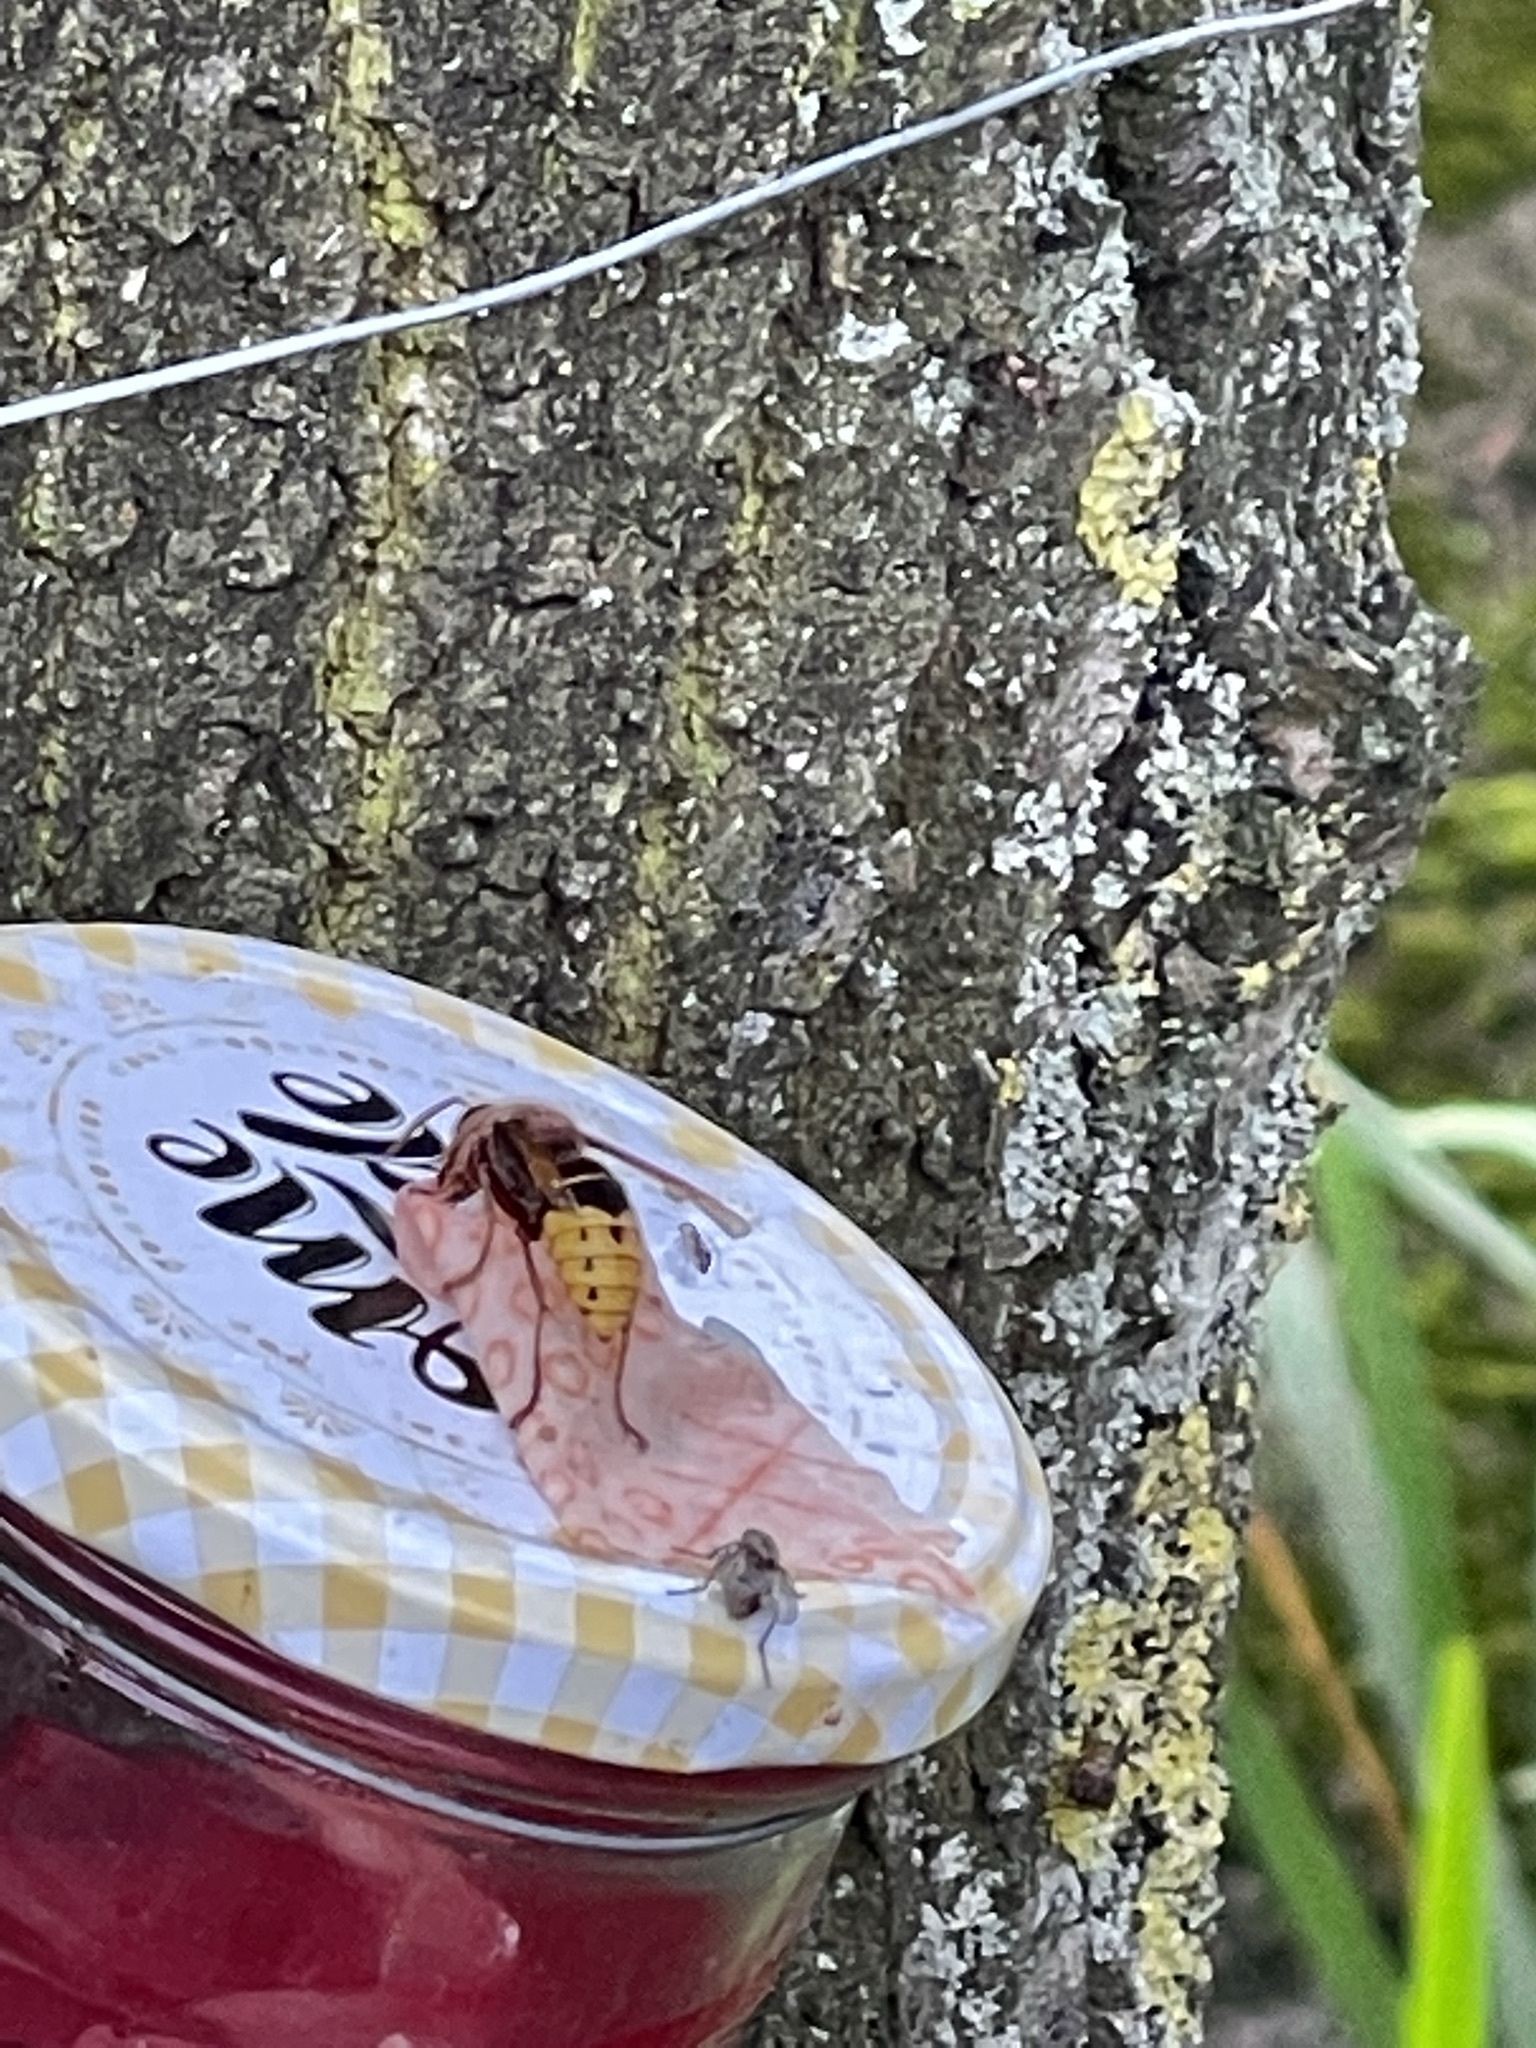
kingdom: Animalia
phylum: Arthropoda
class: Insecta
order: Hymenoptera
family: Vespidae
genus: Vespa
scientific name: Vespa crabro
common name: Hornet
